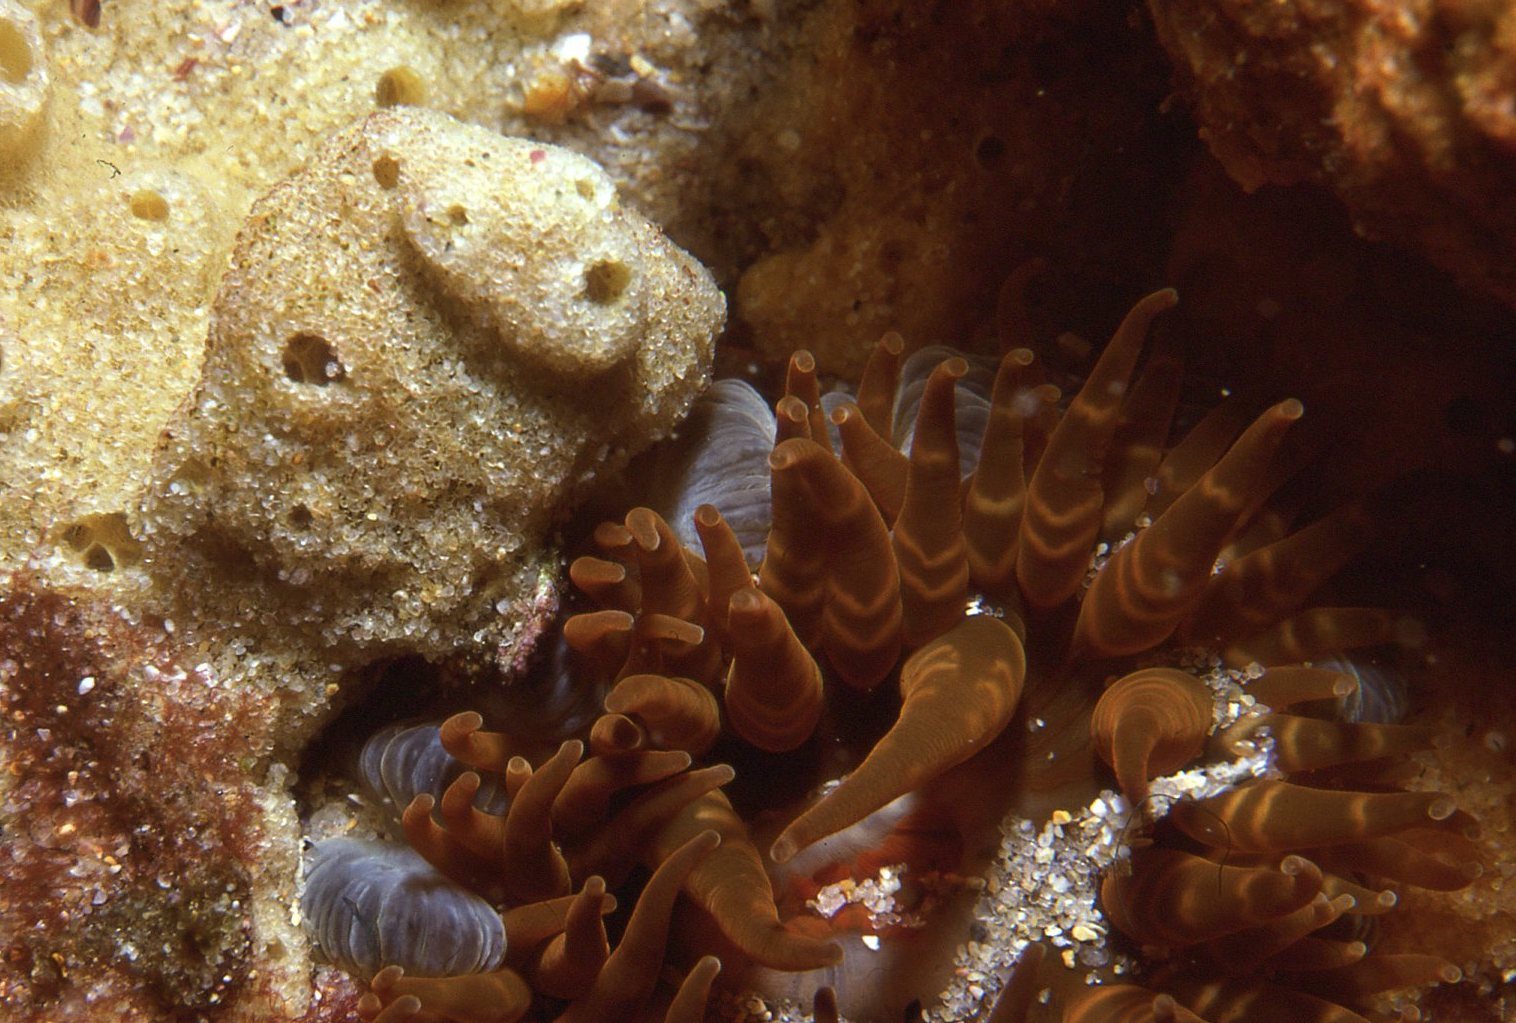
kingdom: Animalia
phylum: Cnidaria
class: Anthozoa
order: Actiniaria
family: Actiniidae
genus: Phlyctenanthus
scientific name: Phlyctenanthus australis
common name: Southern anemone
